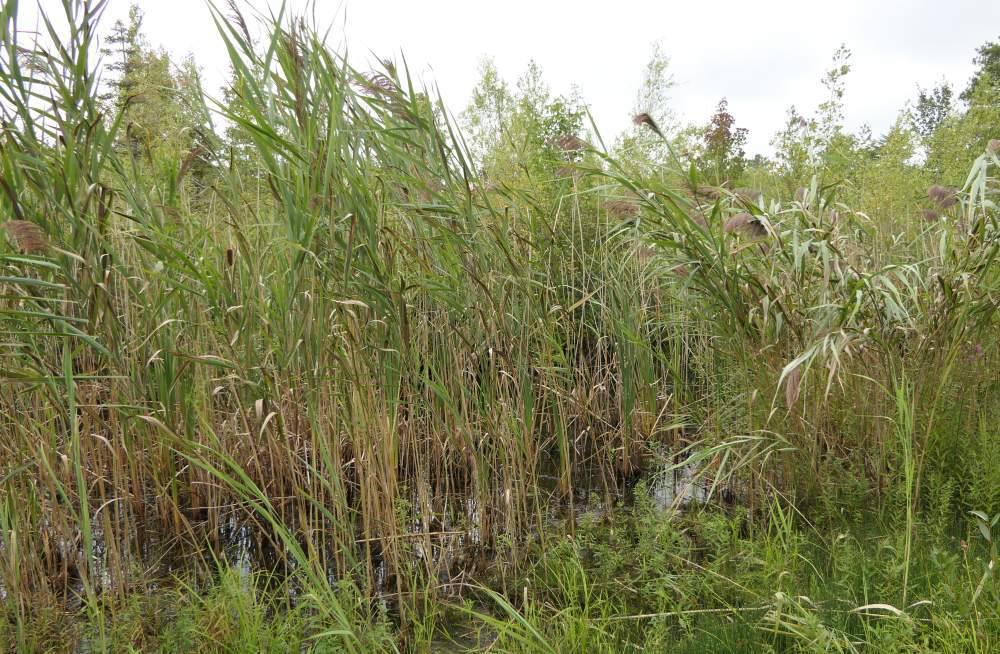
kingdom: Plantae
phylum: Tracheophyta
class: Liliopsida
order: Poales
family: Poaceae
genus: Phragmites
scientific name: Phragmites australis
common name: Common reed
